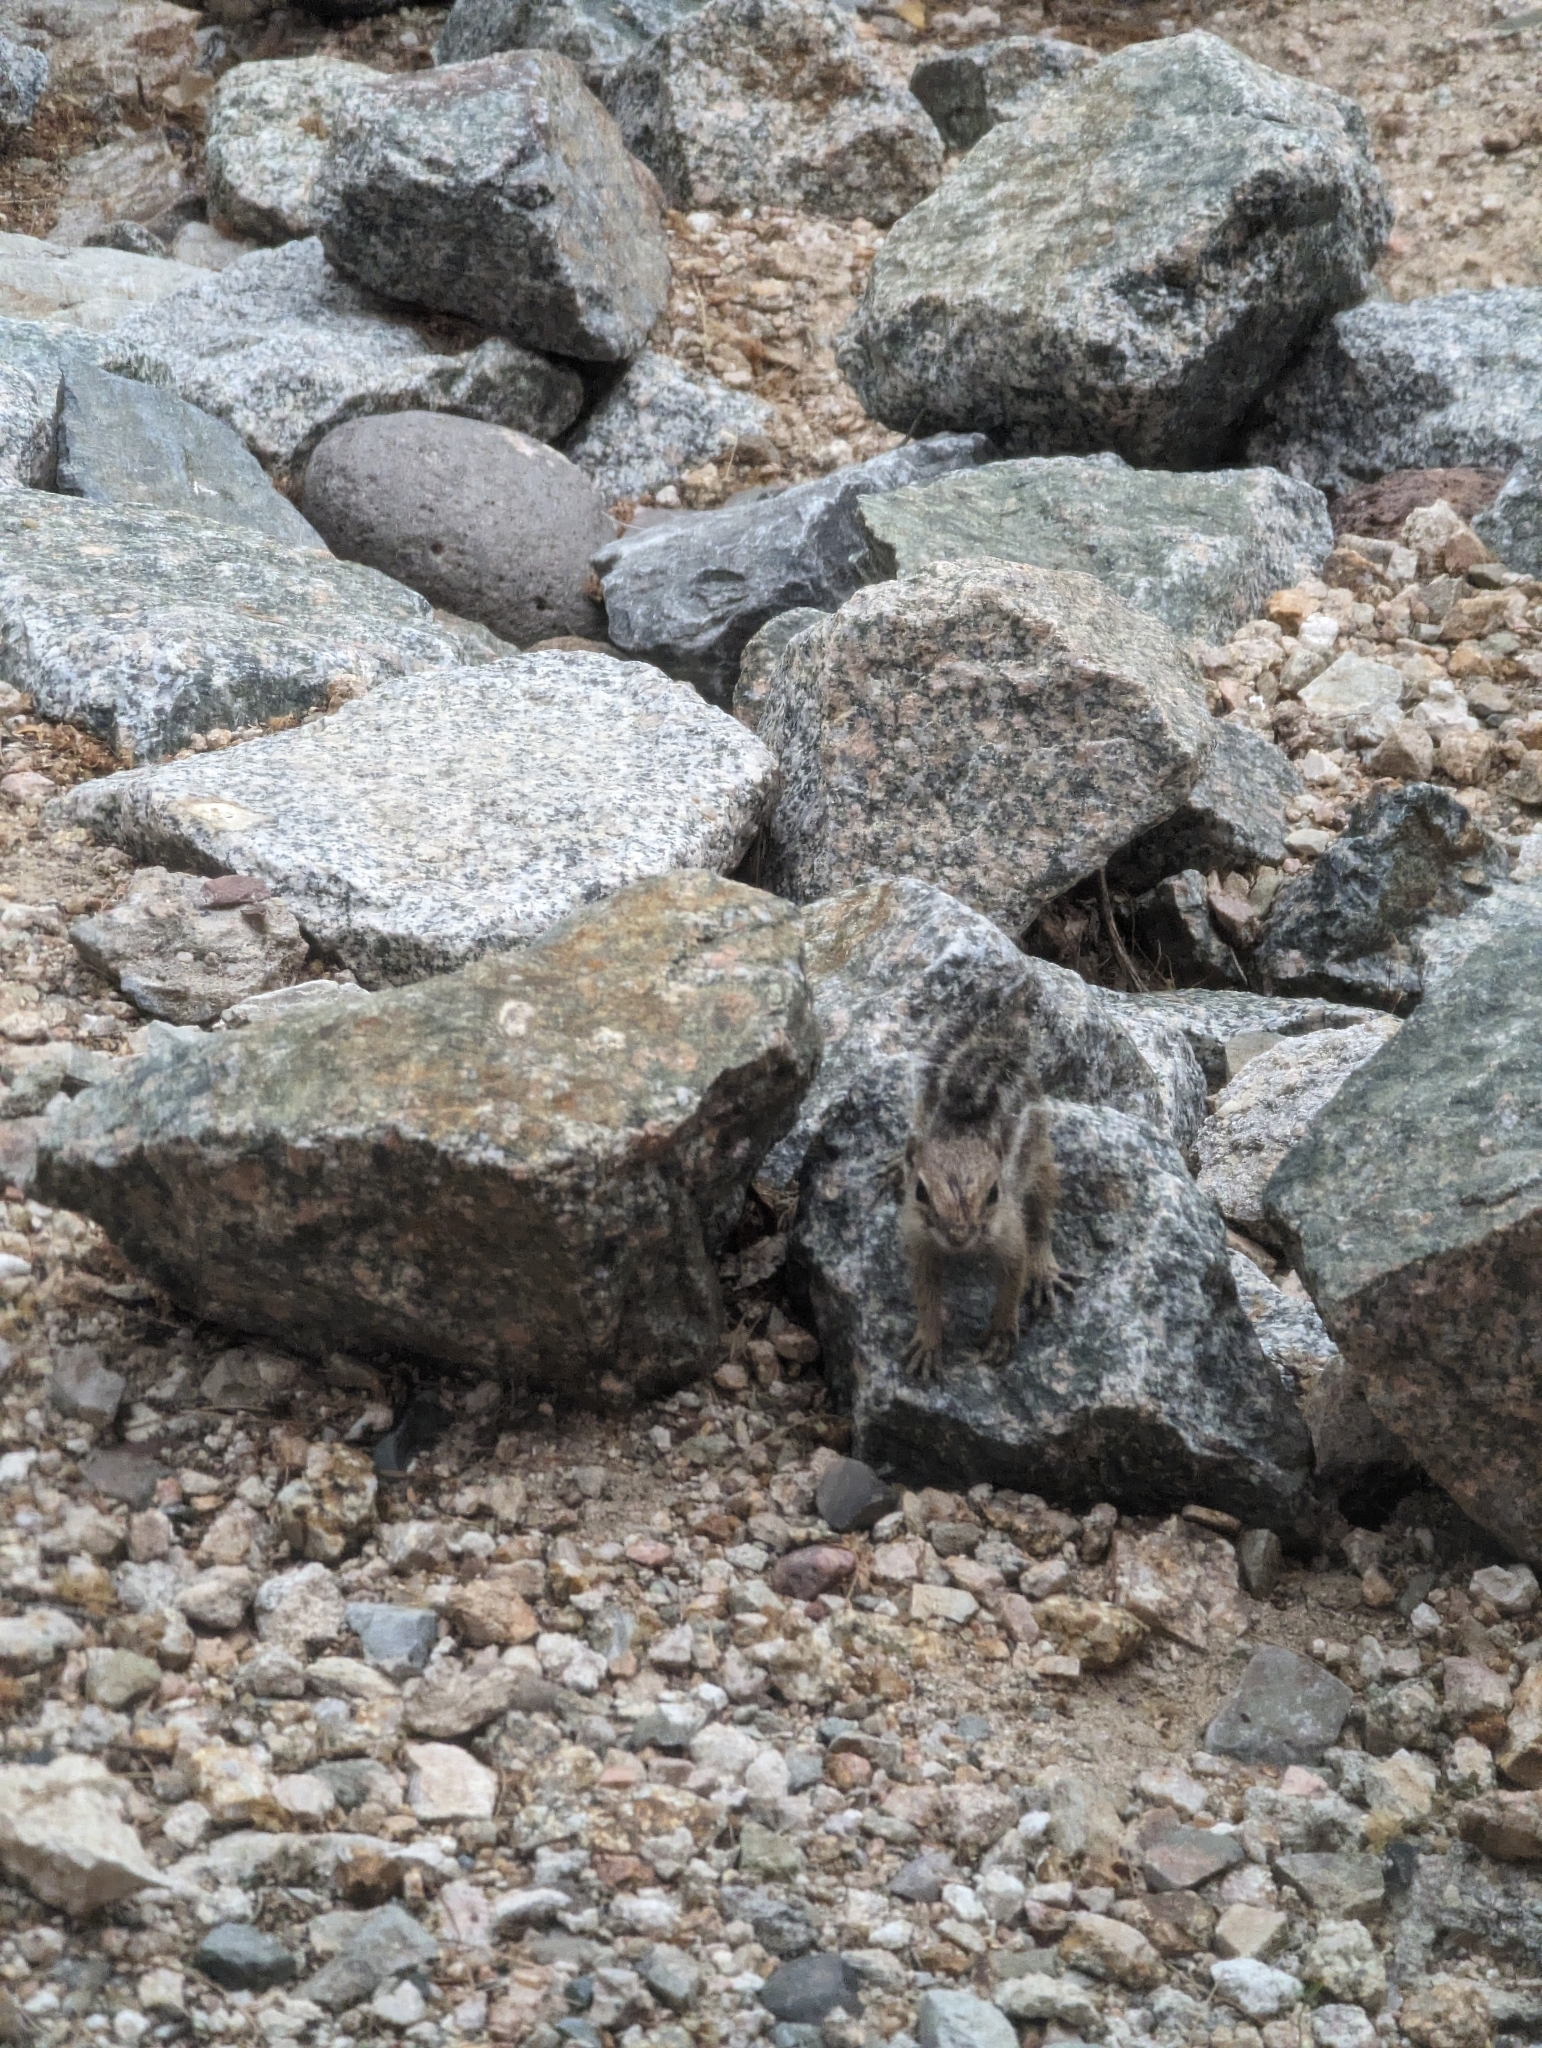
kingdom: Animalia
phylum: Chordata
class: Mammalia
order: Rodentia
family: Sciuridae
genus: Ammospermophilus
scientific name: Ammospermophilus harrisii
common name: Harris's antelope squirrel
